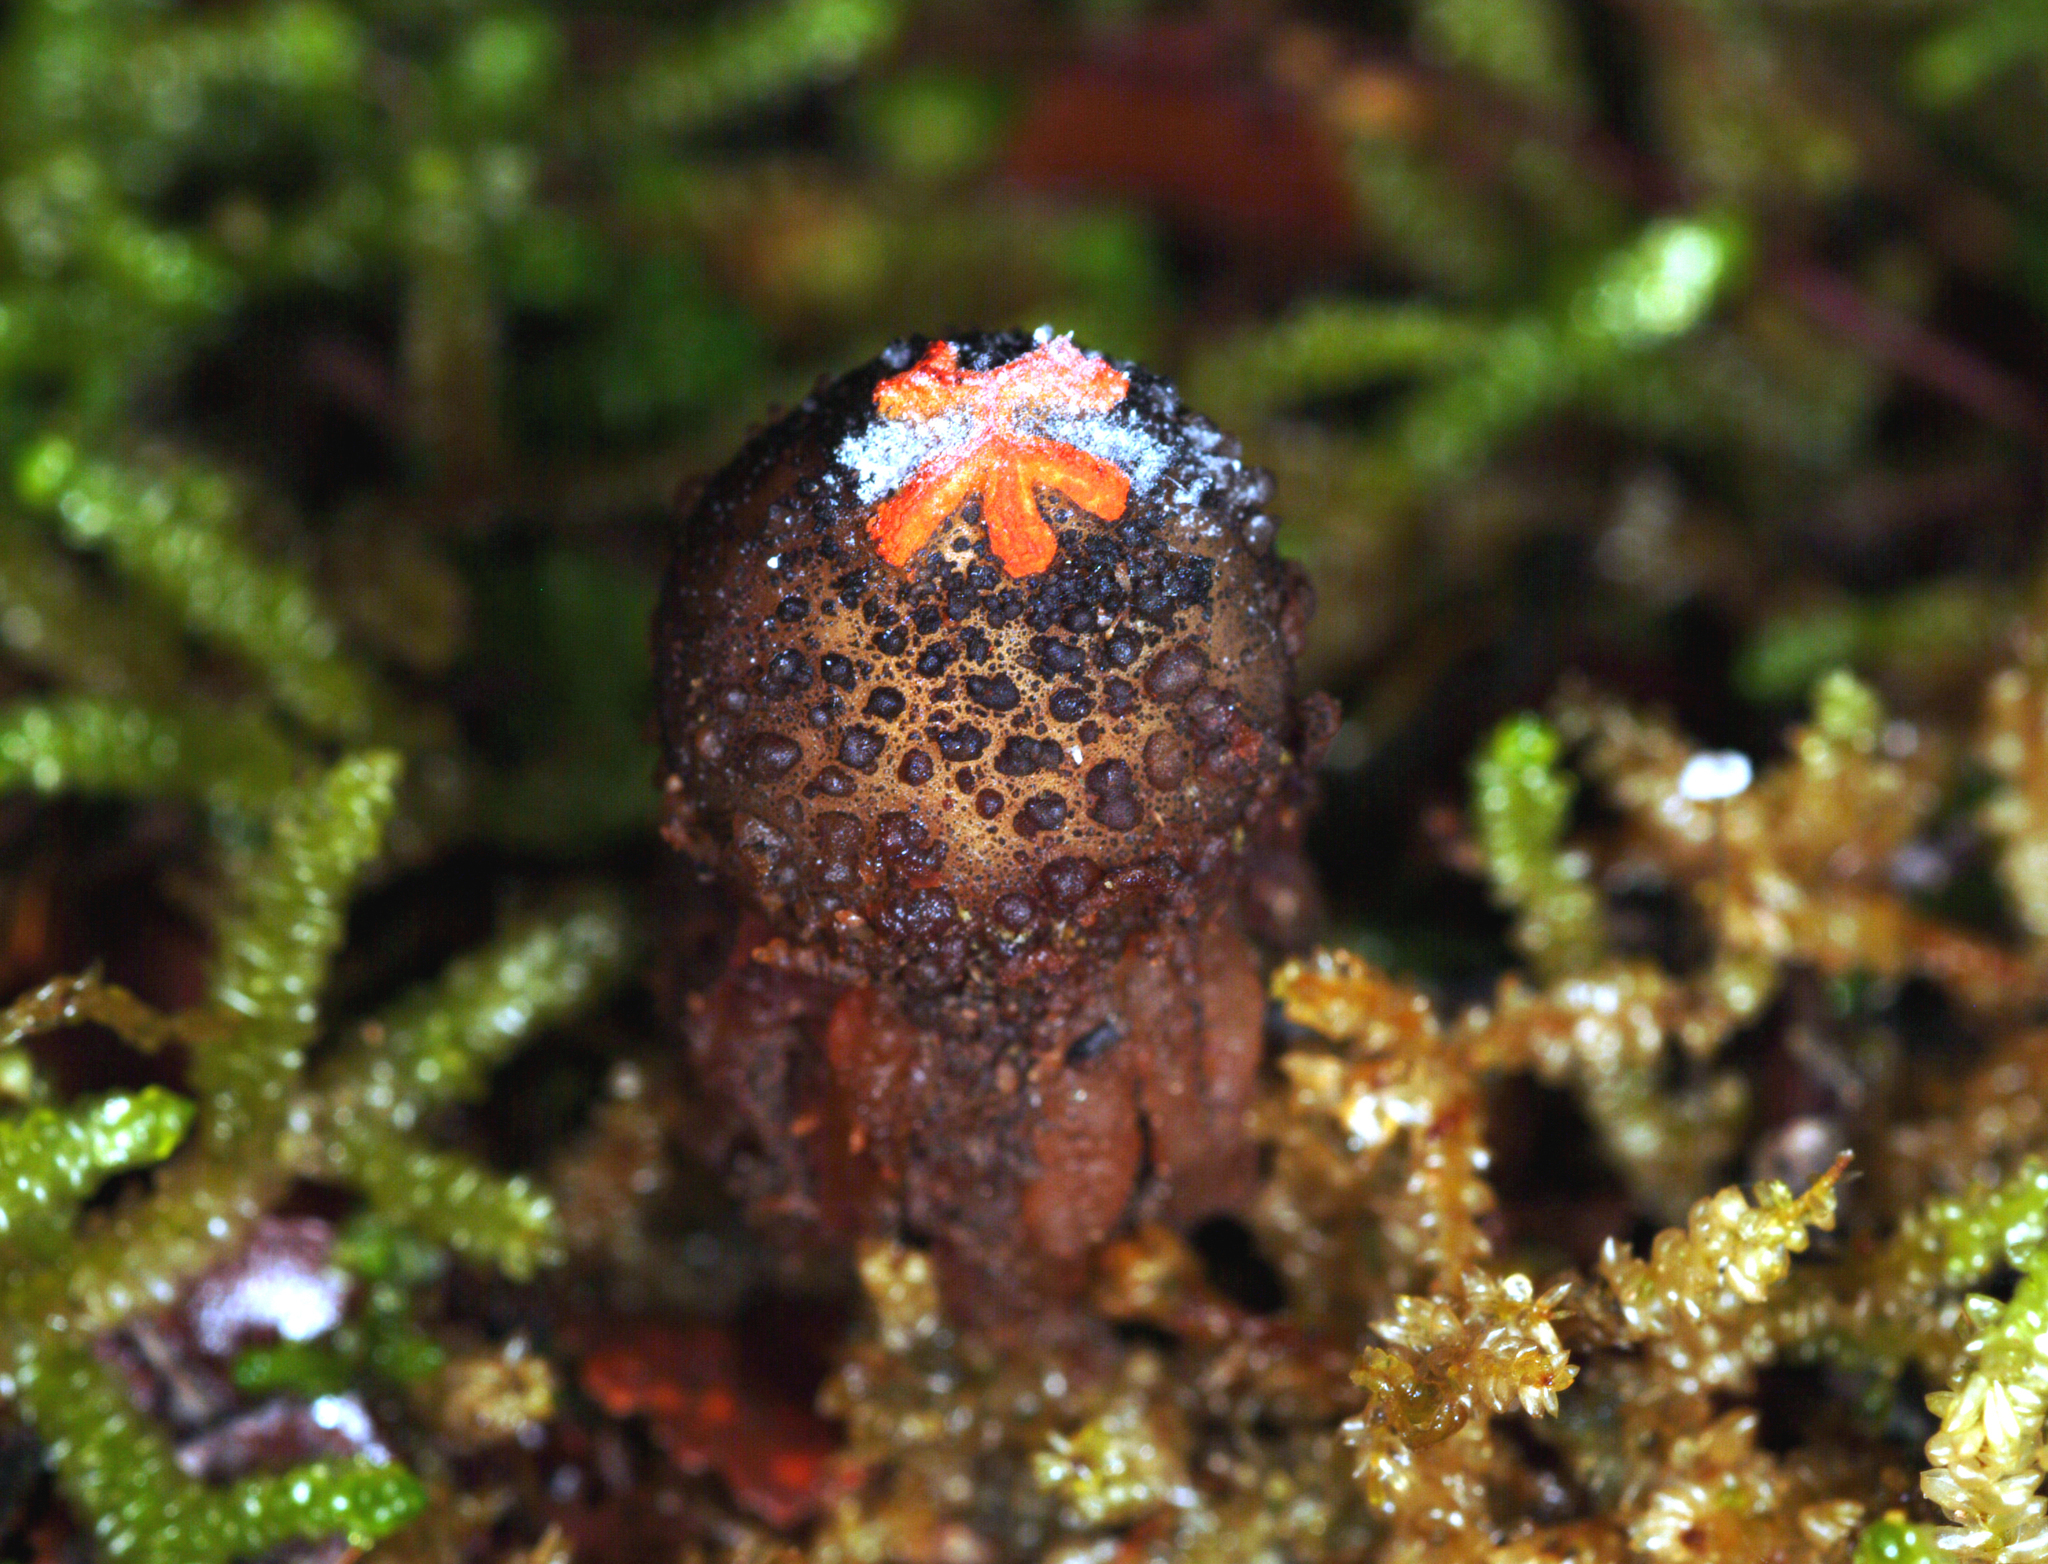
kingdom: Fungi
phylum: Basidiomycota
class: Agaricomycetes
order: Boletales
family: Calostomataceae
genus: Calostoma
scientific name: Calostoma rodwayi
